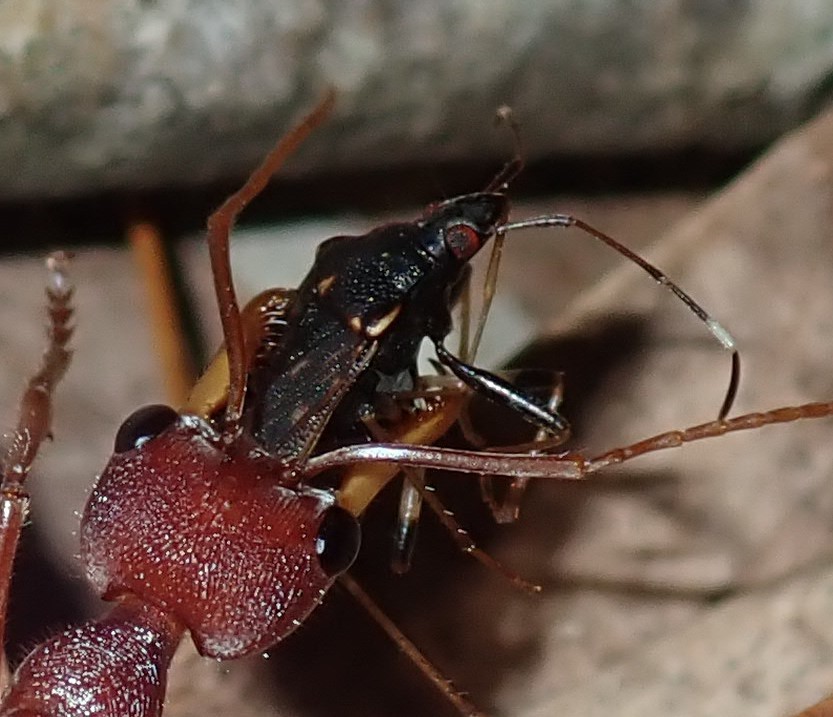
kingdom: Animalia
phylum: Arthropoda
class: Insecta
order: Hemiptera
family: Rhyparochromidae
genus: Aristaenetus
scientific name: Aristaenetus similis
